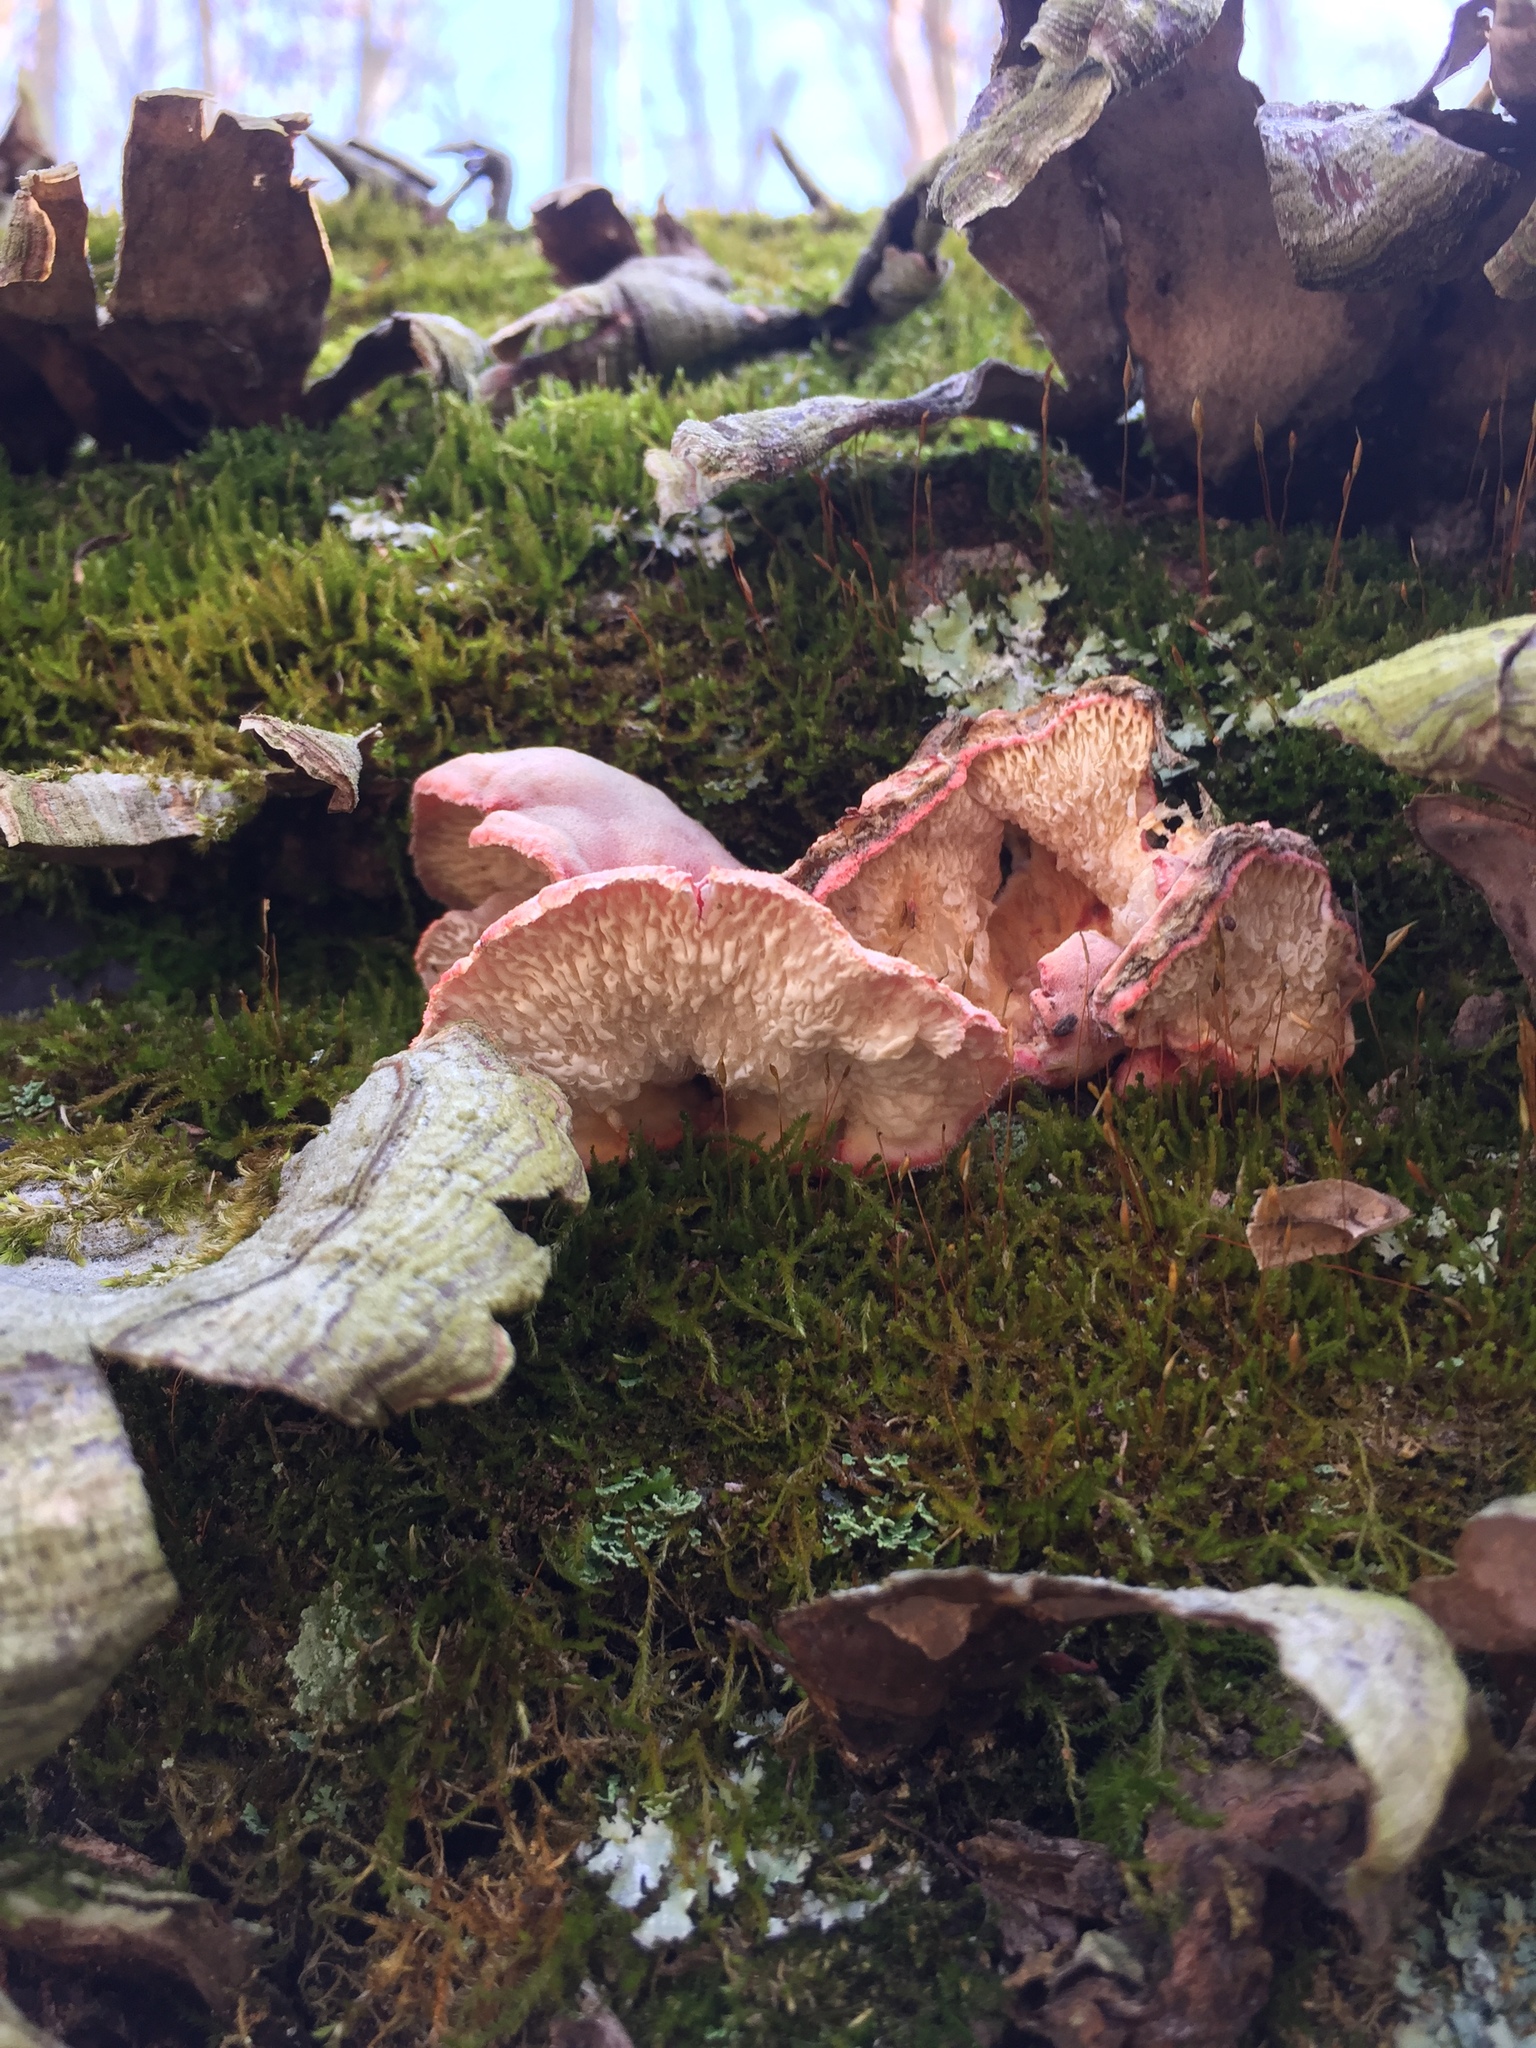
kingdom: Fungi
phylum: Basidiomycota
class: Agaricomycetes
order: Polyporales
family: Irpicaceae
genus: Byssomerulius
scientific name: Byssomerulius incarnatus
